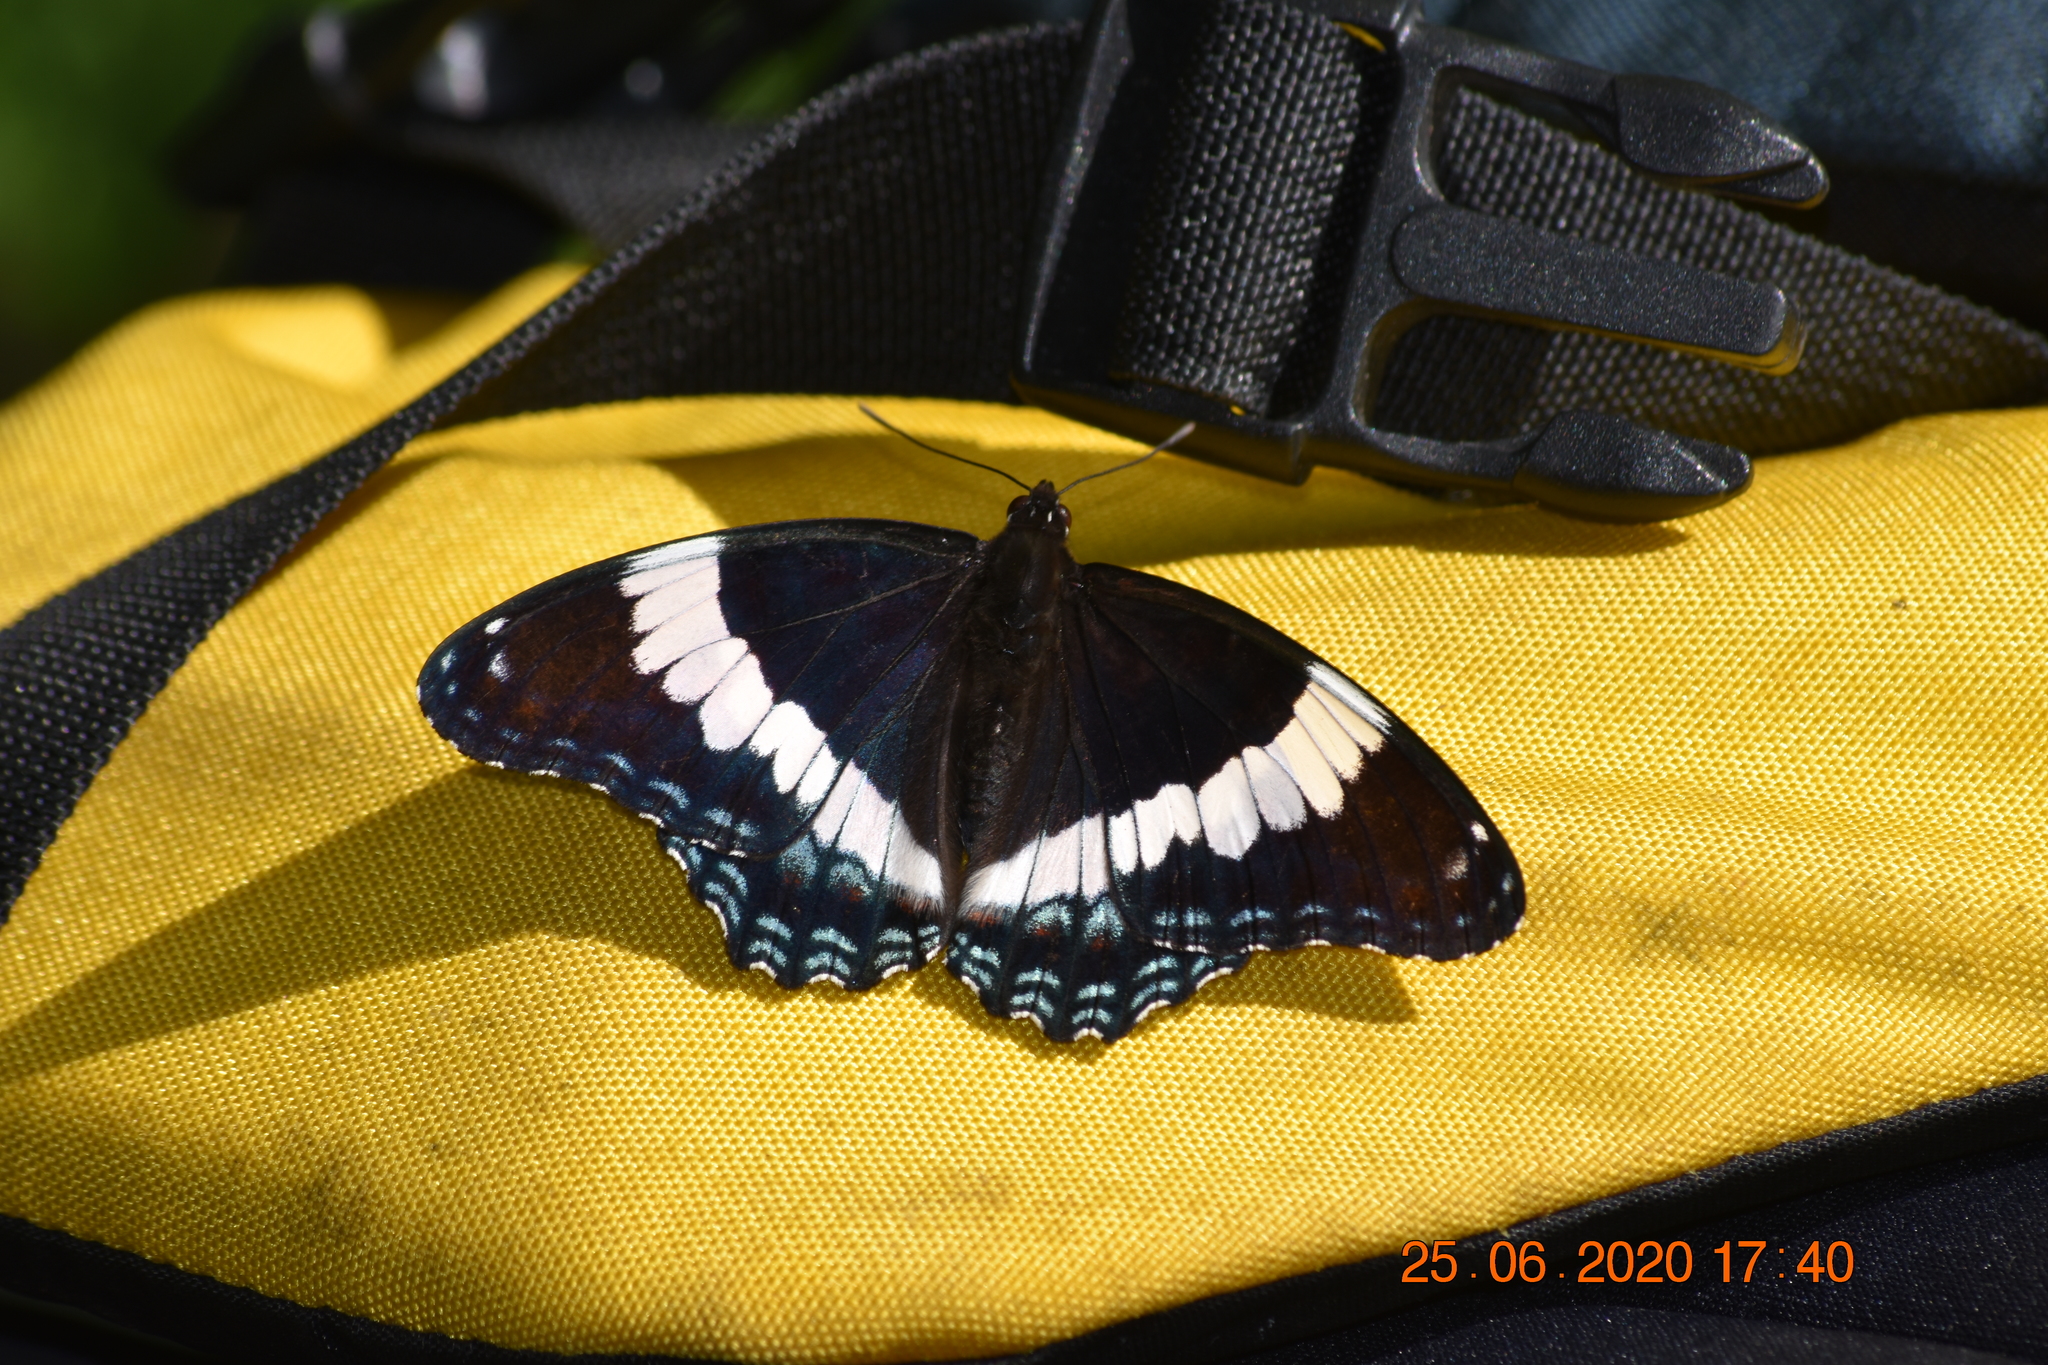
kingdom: Animalia
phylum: Arthropoda
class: Insecta
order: Lepidoptera
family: Nymphalidae
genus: Limenitis
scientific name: Limenitis arthemis
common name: Red-spotted admiral
